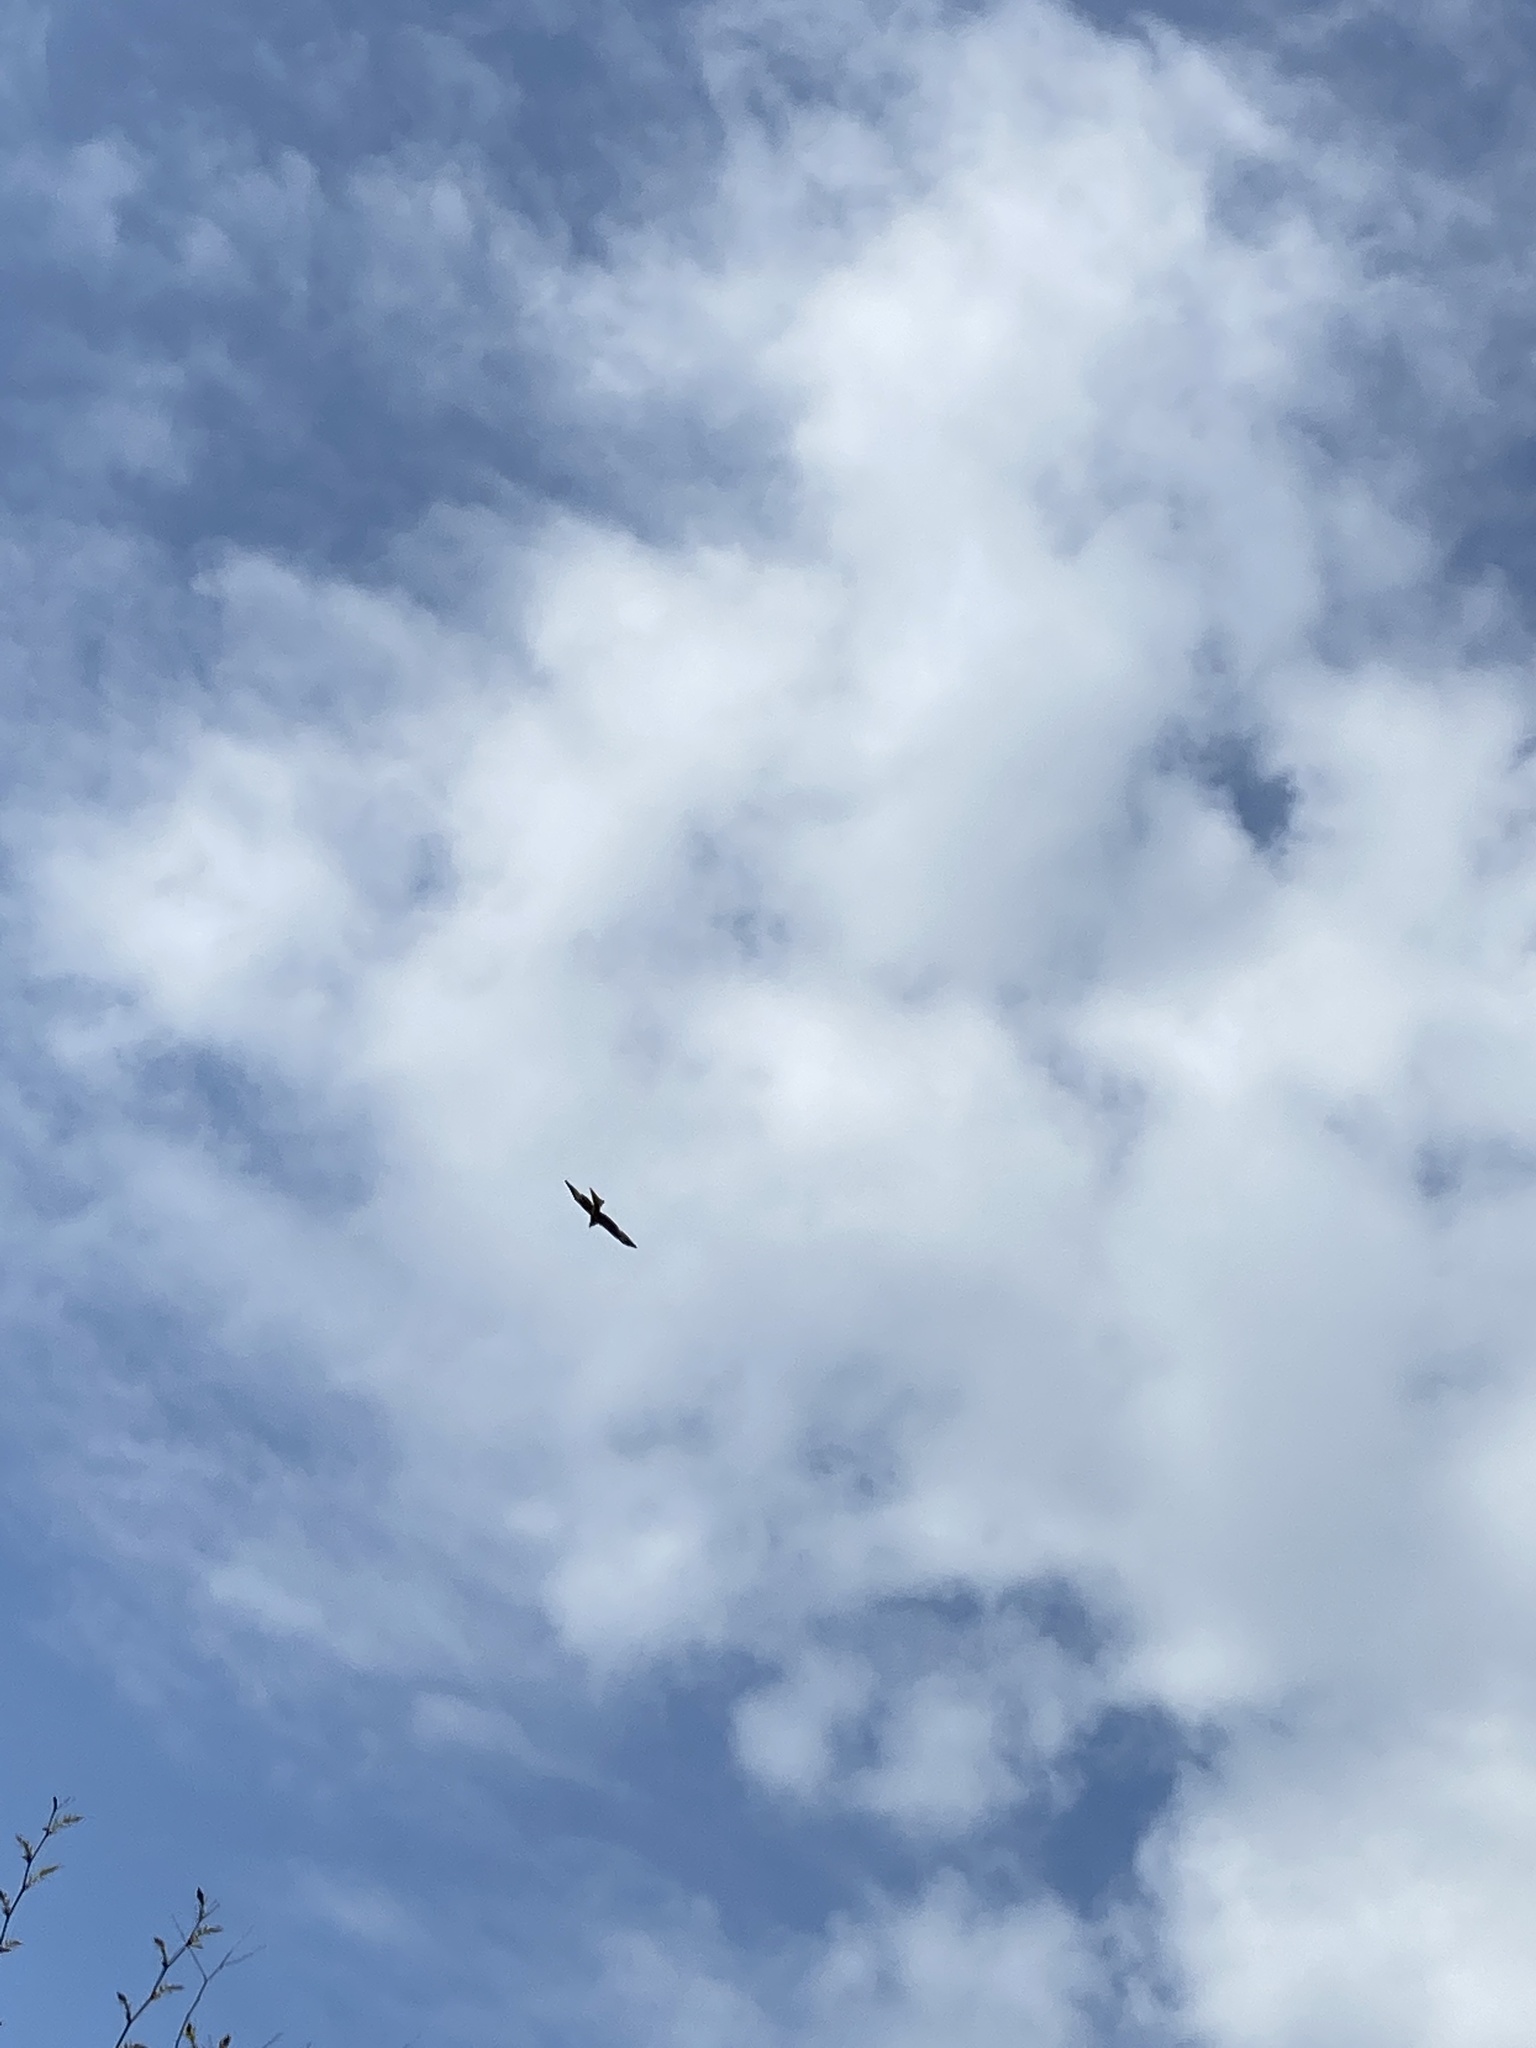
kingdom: Animalia
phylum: Chordata
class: Aves
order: Accipitriformes
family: Accipitridae
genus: Milvus
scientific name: Milvus milvus
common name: Red kite
